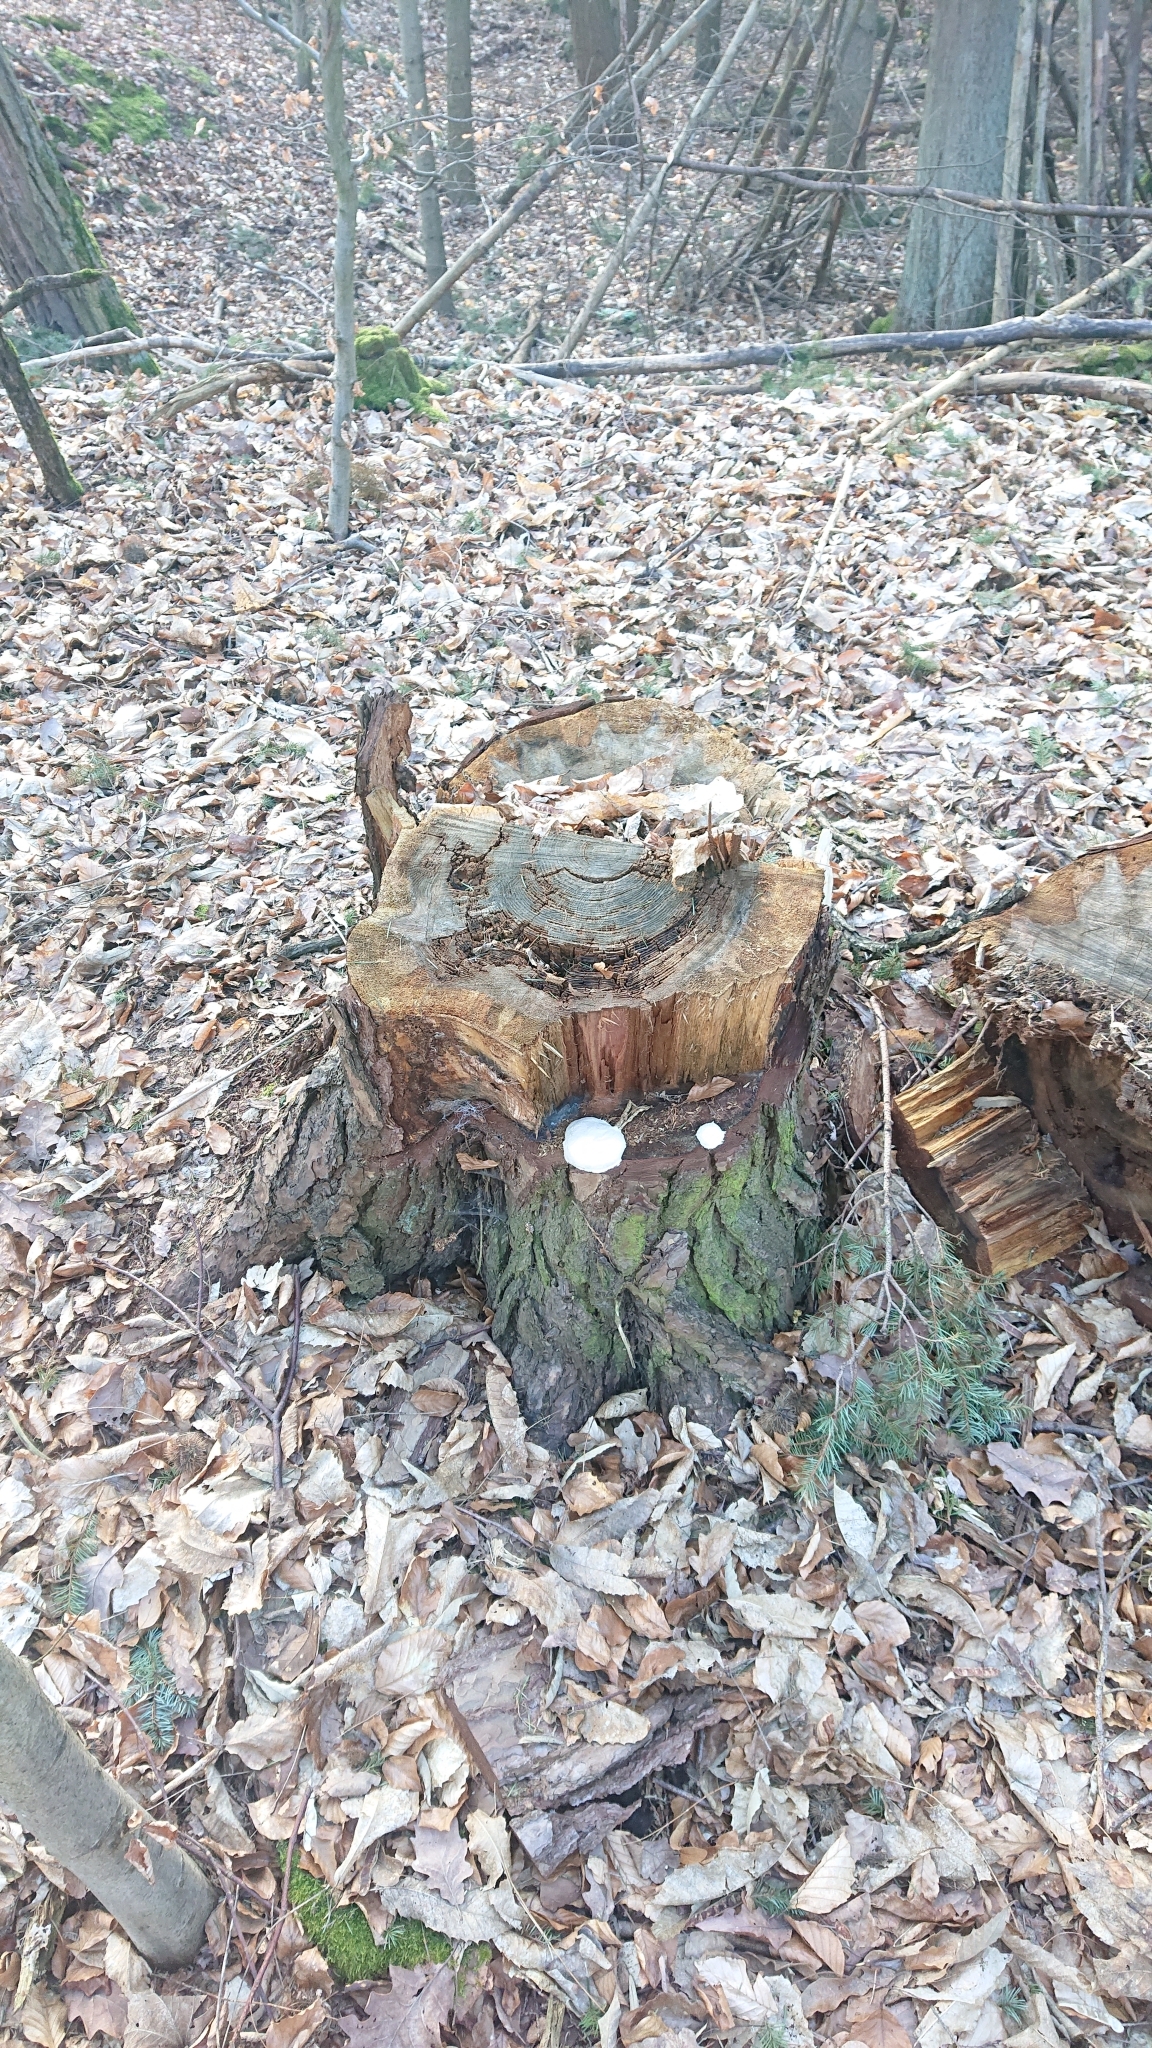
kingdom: Protozoa
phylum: Mycetozoa
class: Myxomycetes
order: Cribrariales
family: Tubiferaceae
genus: Reticularia
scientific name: Reticularia lycoperdon
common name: False puffball
